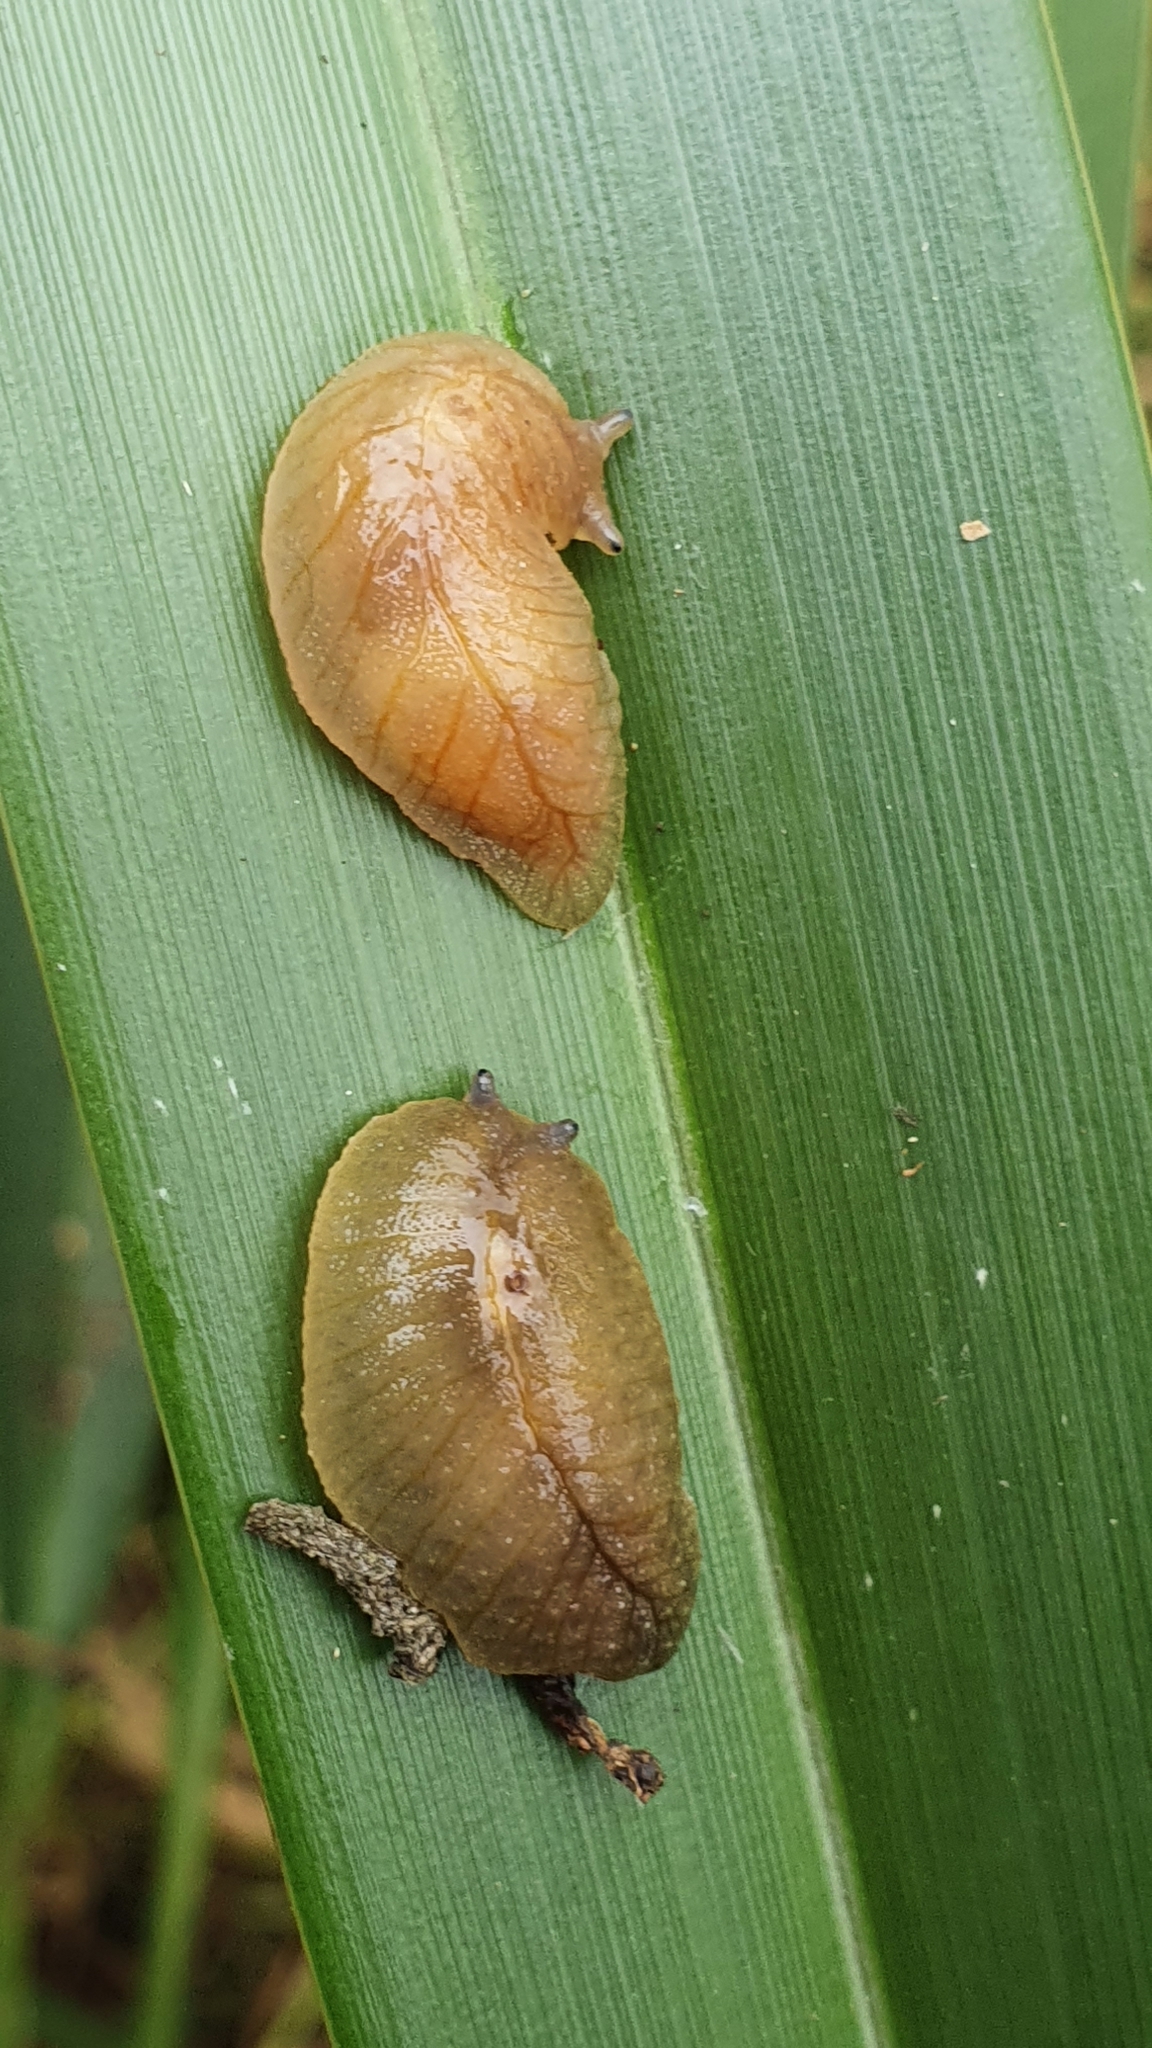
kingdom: Animalia
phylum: Mollusca
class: Gastropoda
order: Stylommatophora
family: Athoracophoridae
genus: Athoracophorus
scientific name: Athoracophorus bitentaculatus
